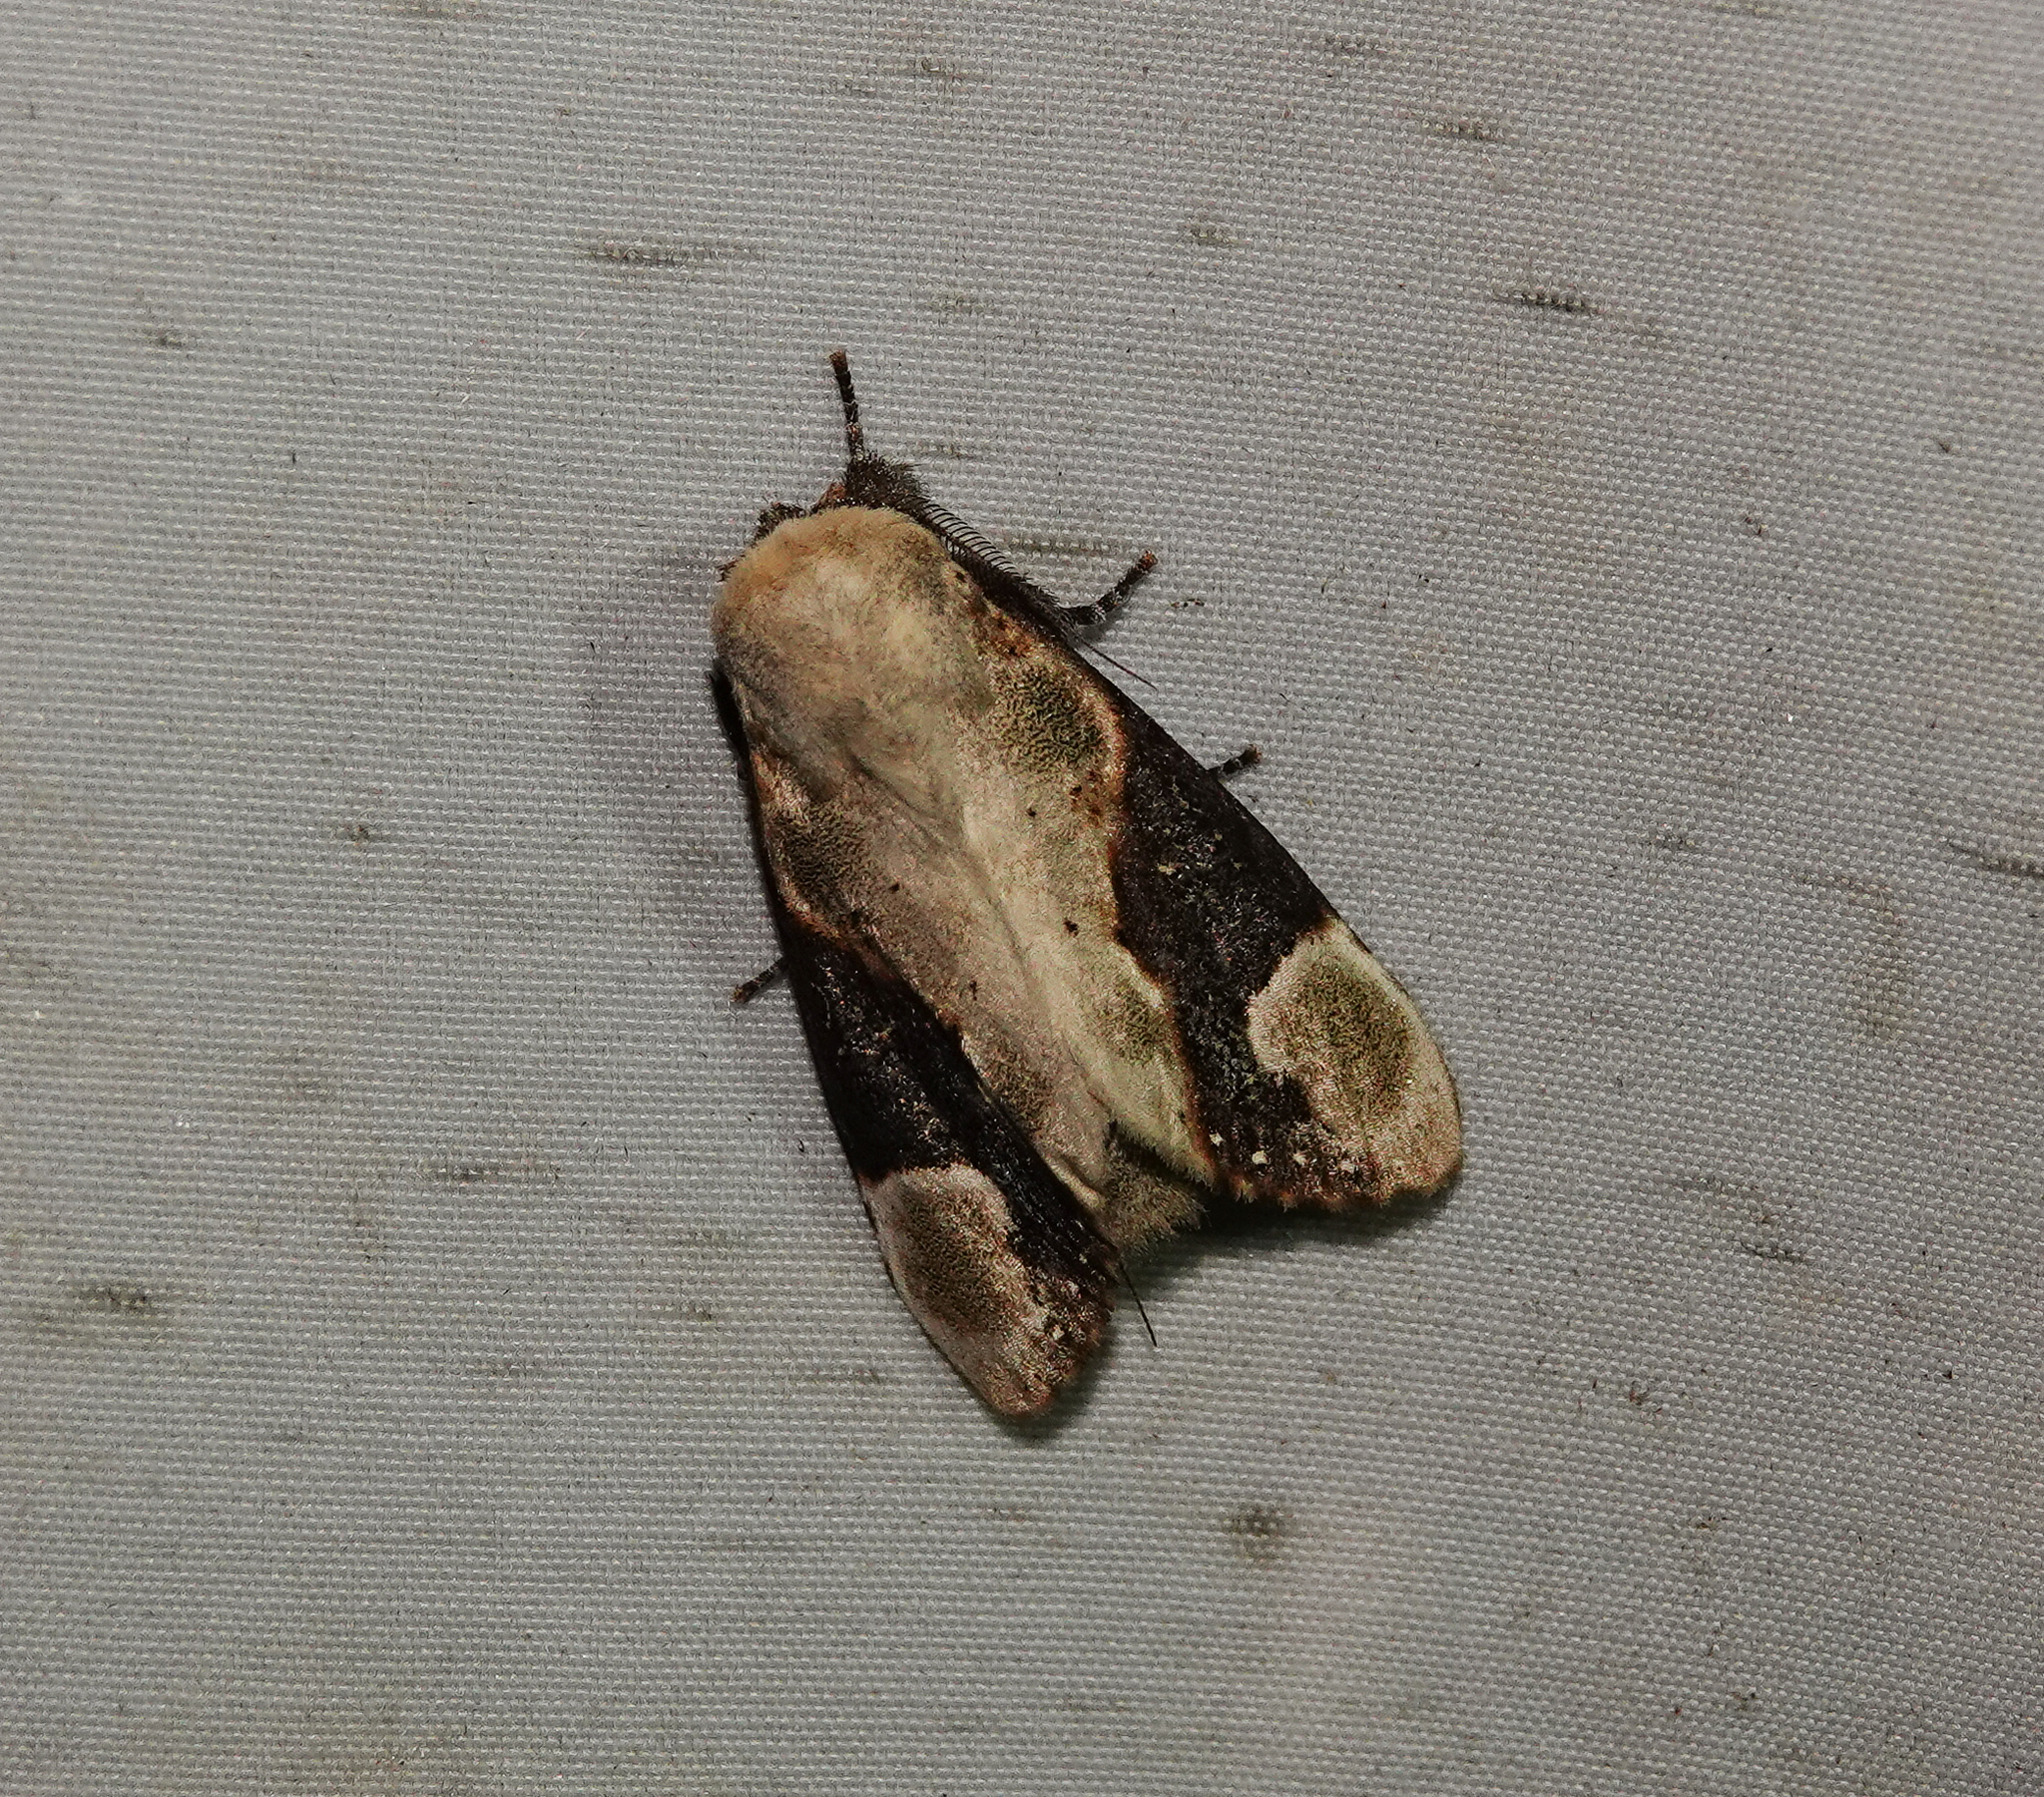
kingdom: Animalia
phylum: Arthropoda
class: Insecta
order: Lepidoptera
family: Notodontidae
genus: Formofentonia
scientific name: Formofentonia orbifer
